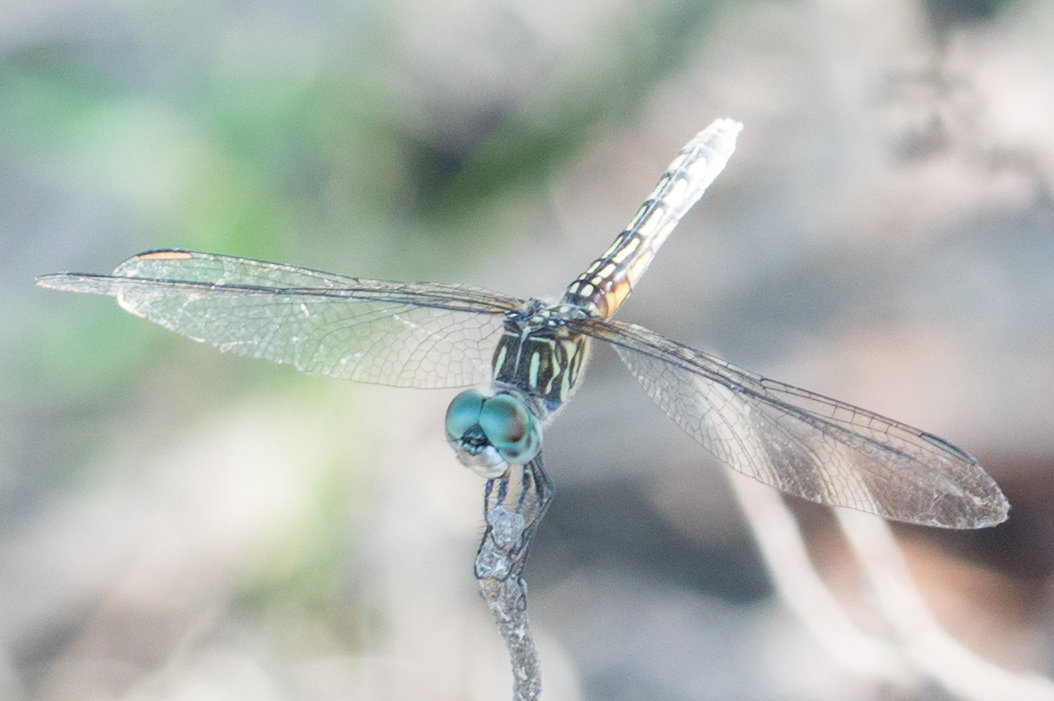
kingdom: Animalia
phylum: Arthropoda
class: Insecta
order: Odonata
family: Libellulidae
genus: Pachydiplax
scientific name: Pachydiplax longipennis
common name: Blue dasher
